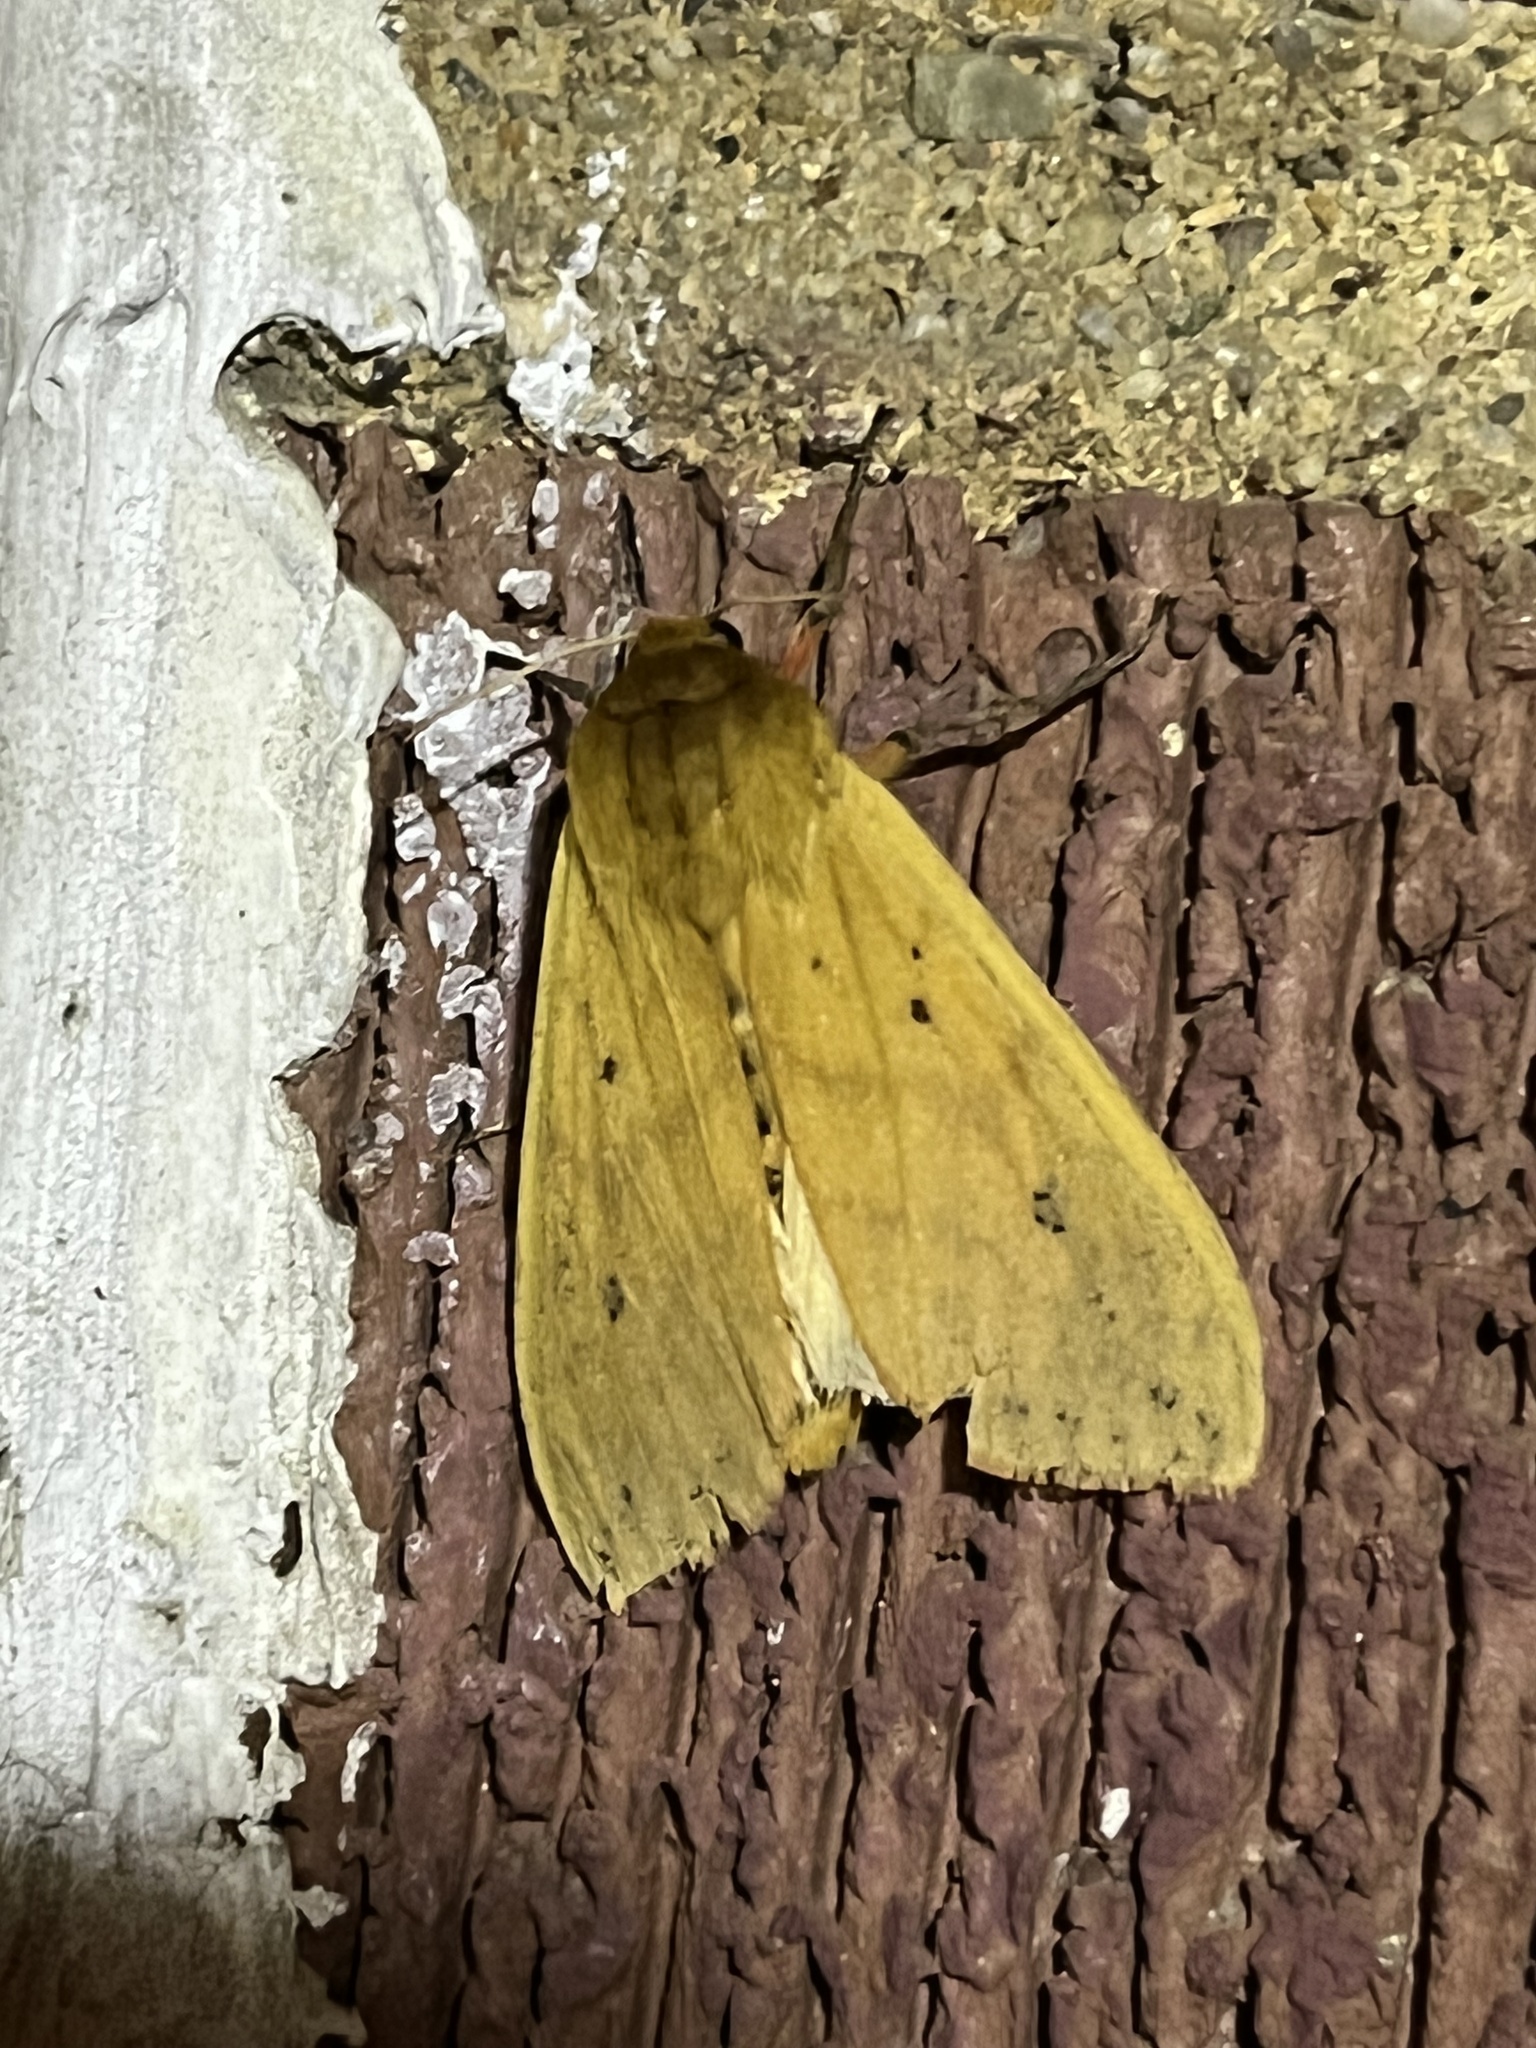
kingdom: Animalia
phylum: Arthropoda
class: Insecta
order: Lepidoptera
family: Erebidae
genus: Pyrrharctia
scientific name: Pyrrharctia isabella
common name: Isabella tiger moth
